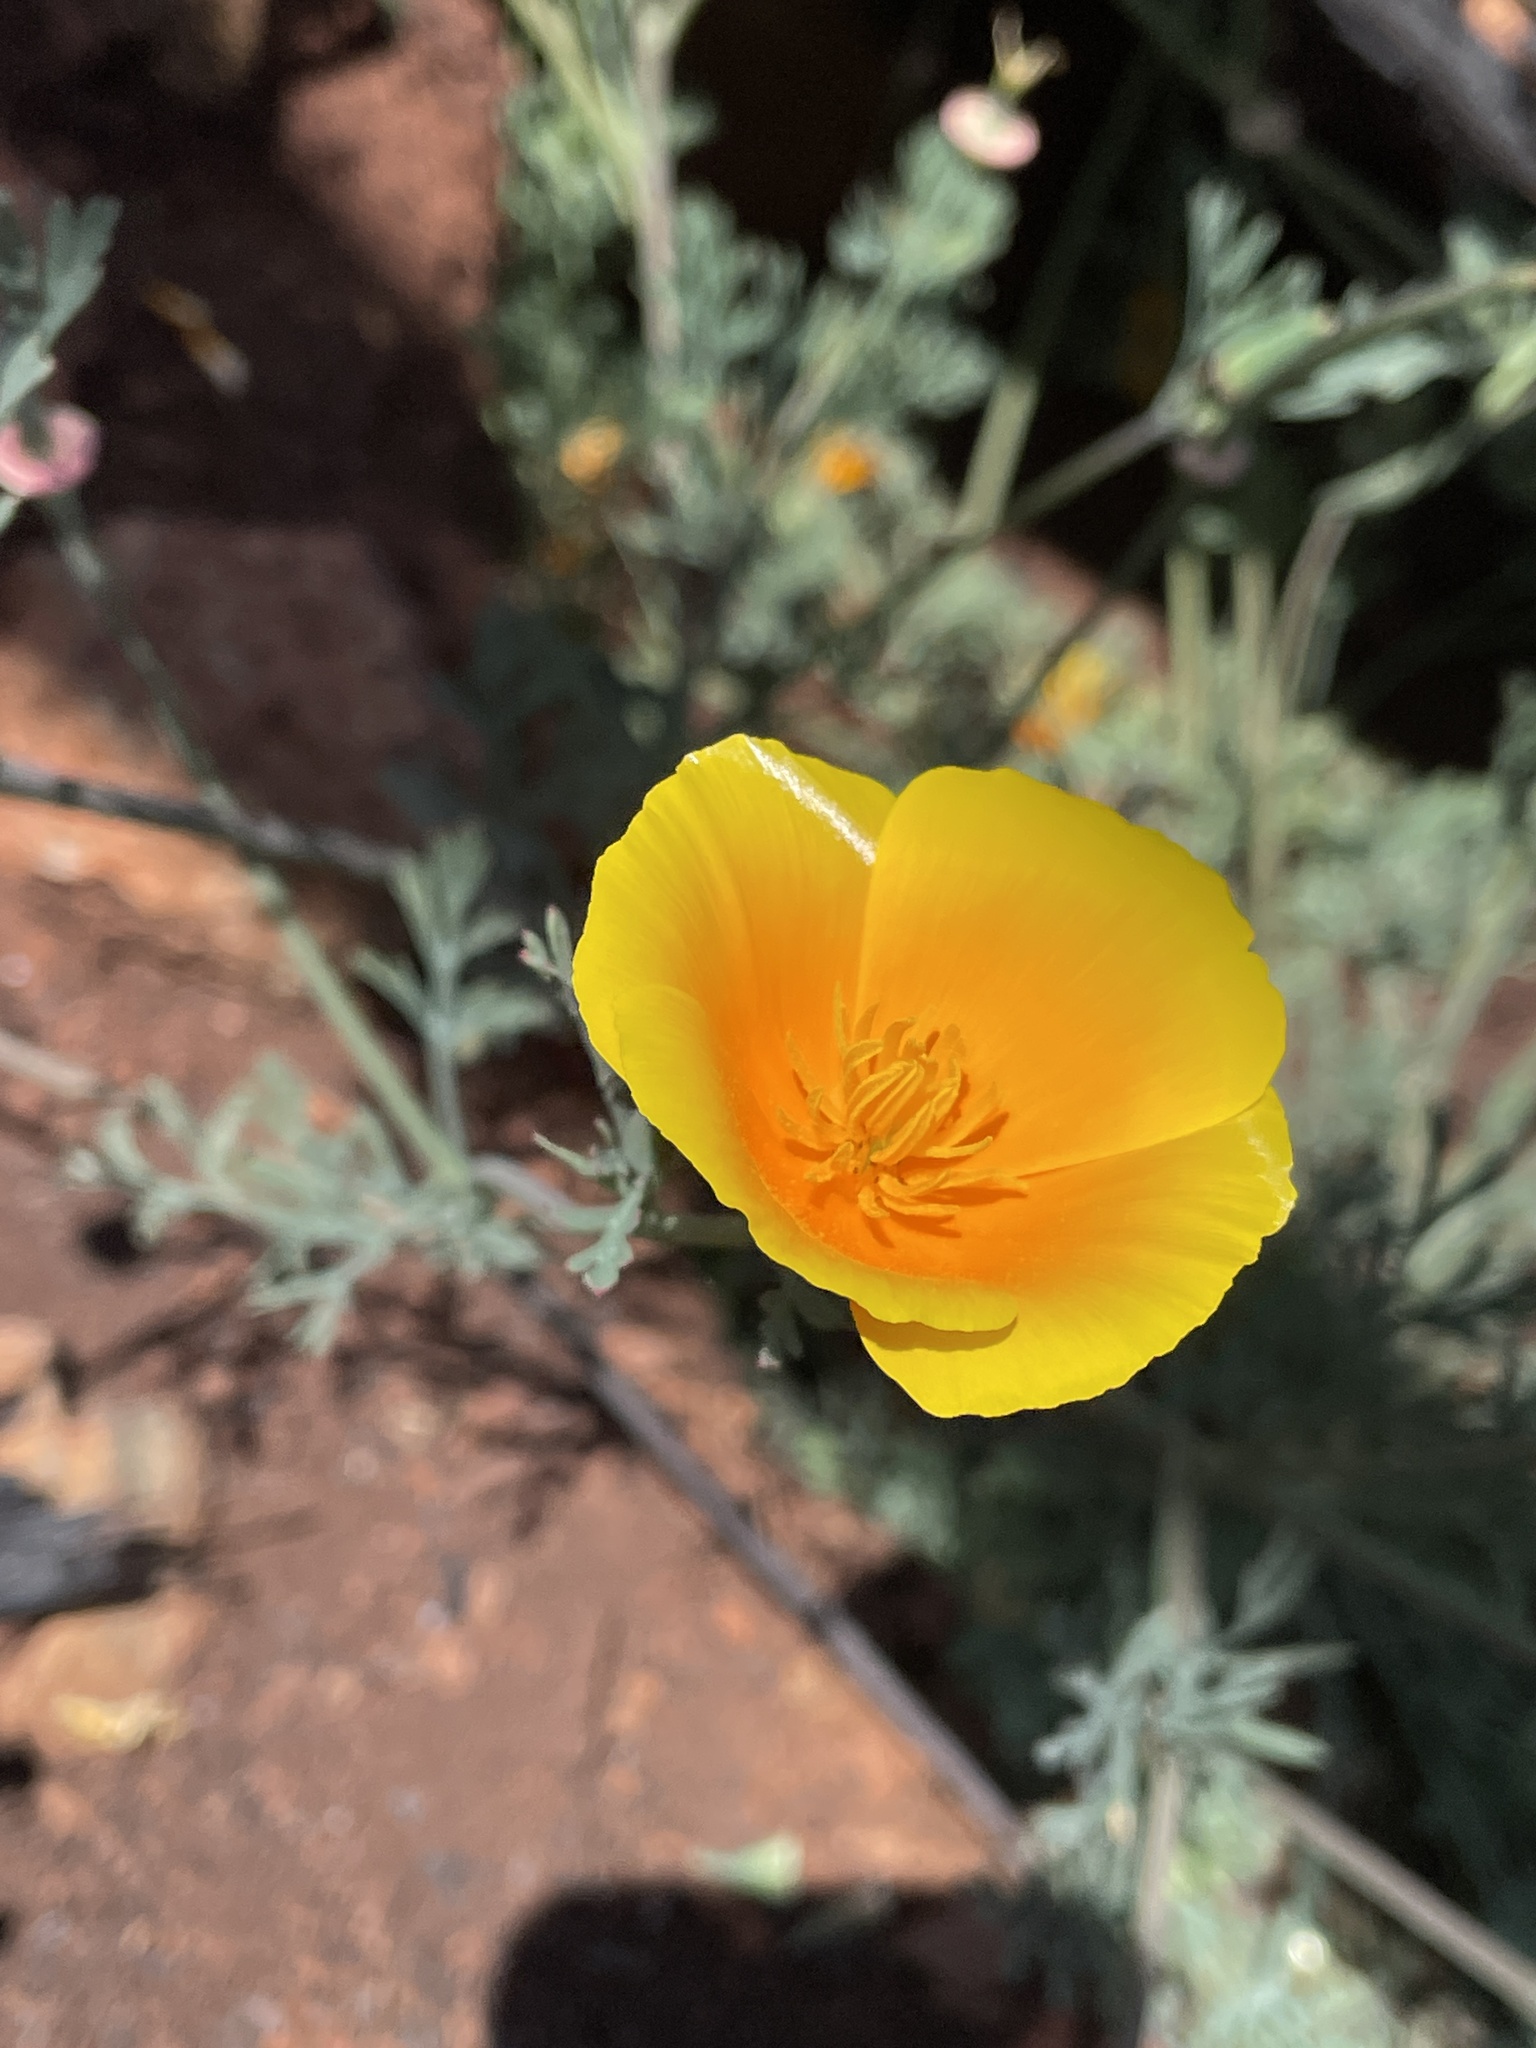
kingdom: Plantae
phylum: Tracheophyta
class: Magnoliopsida
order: Ranunculales
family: Papaveraceae
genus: Eschscholzia
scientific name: Eschscholzia californica
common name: California poppy
